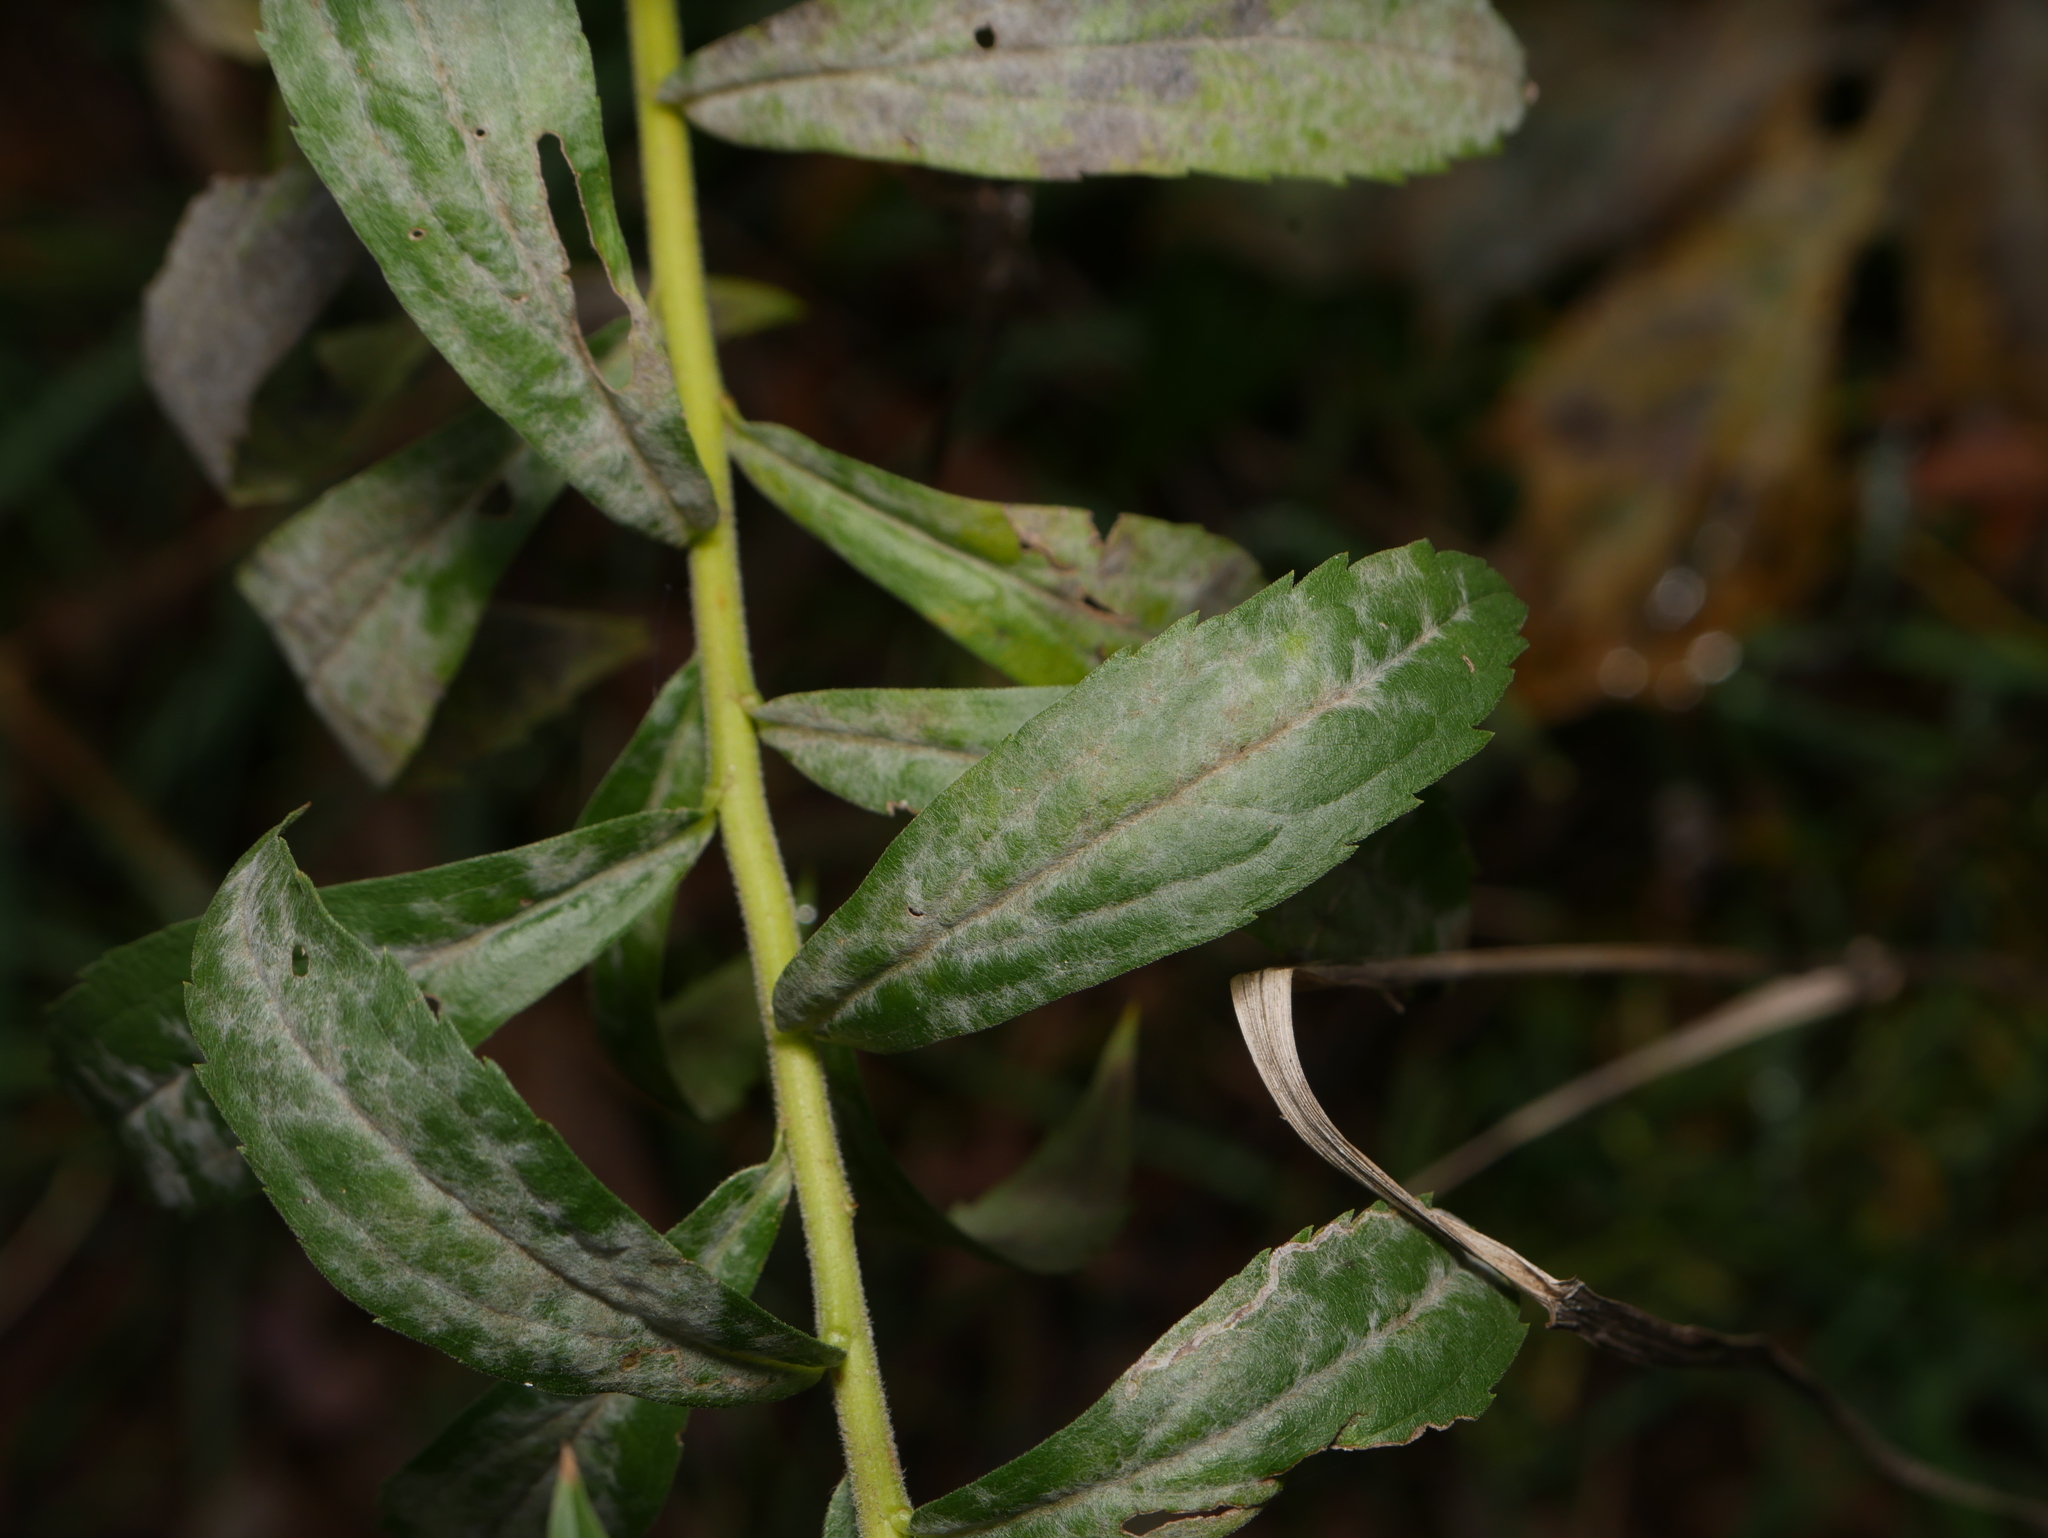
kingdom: Fungi
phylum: Ascomycota
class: Leotiomycetes
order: Helotiales
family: Erysiphaceae
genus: Golovinomyces
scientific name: Golovinomyces asterum
